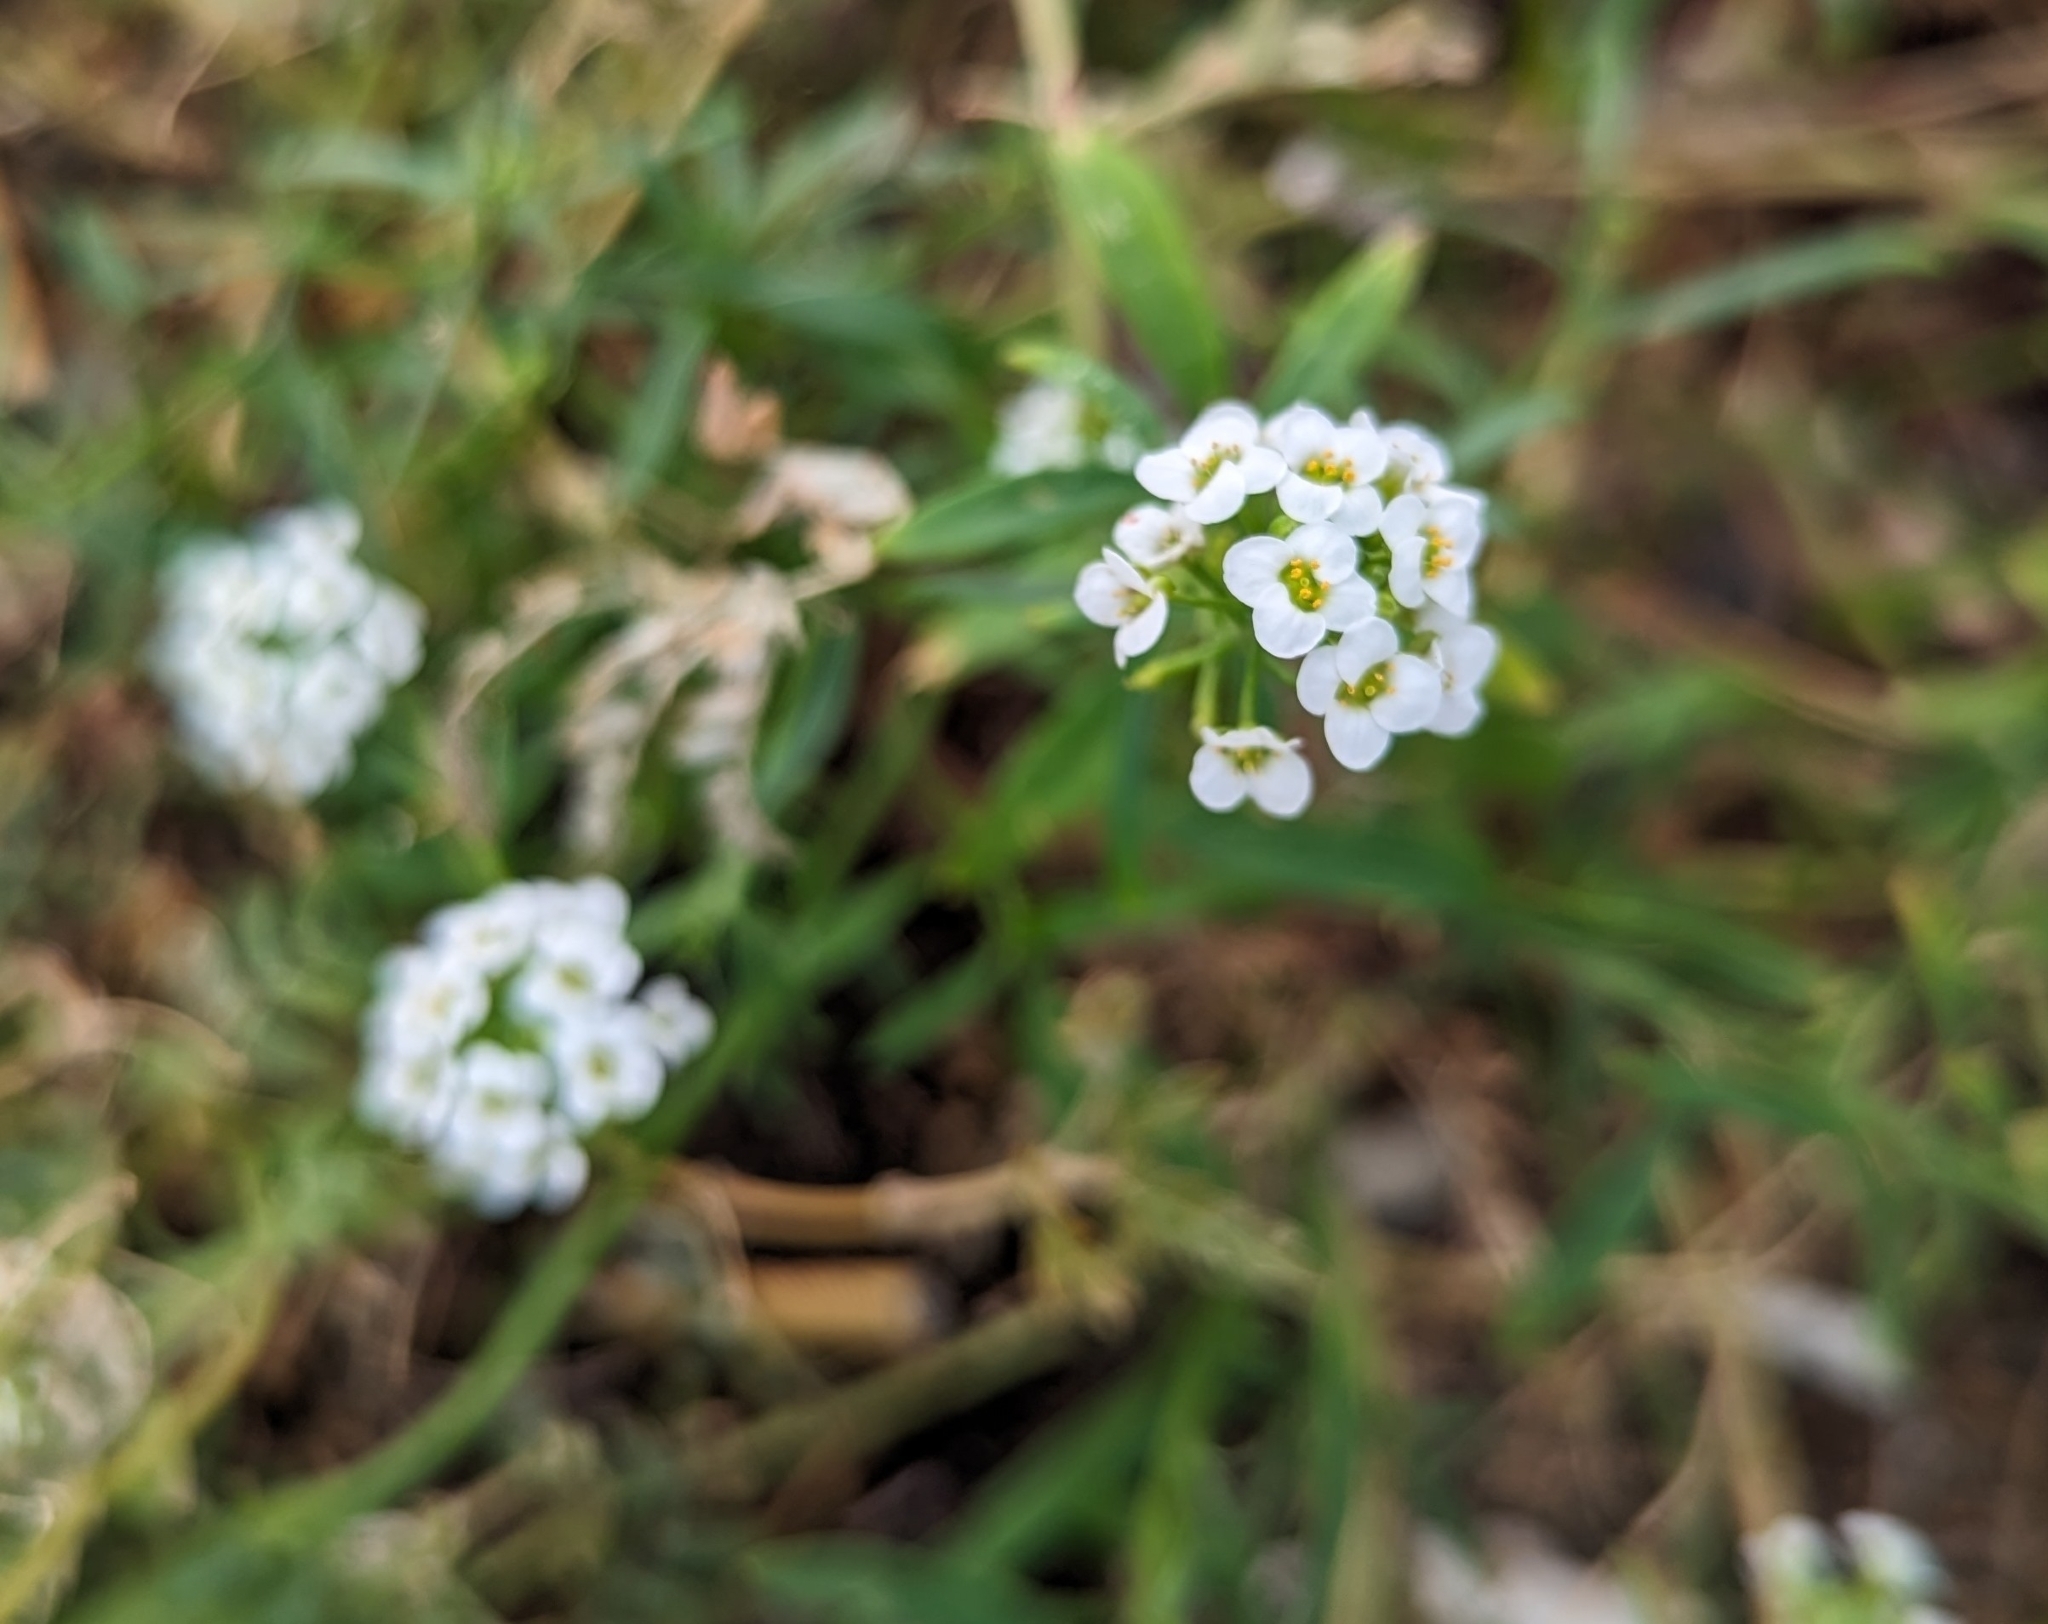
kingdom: Plantae
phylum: Tracheophyta
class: Magnoliopsida
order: Brassicales
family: Brassicaceae
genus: Lobularia
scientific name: Lobularia maritima
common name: Sweet alison
